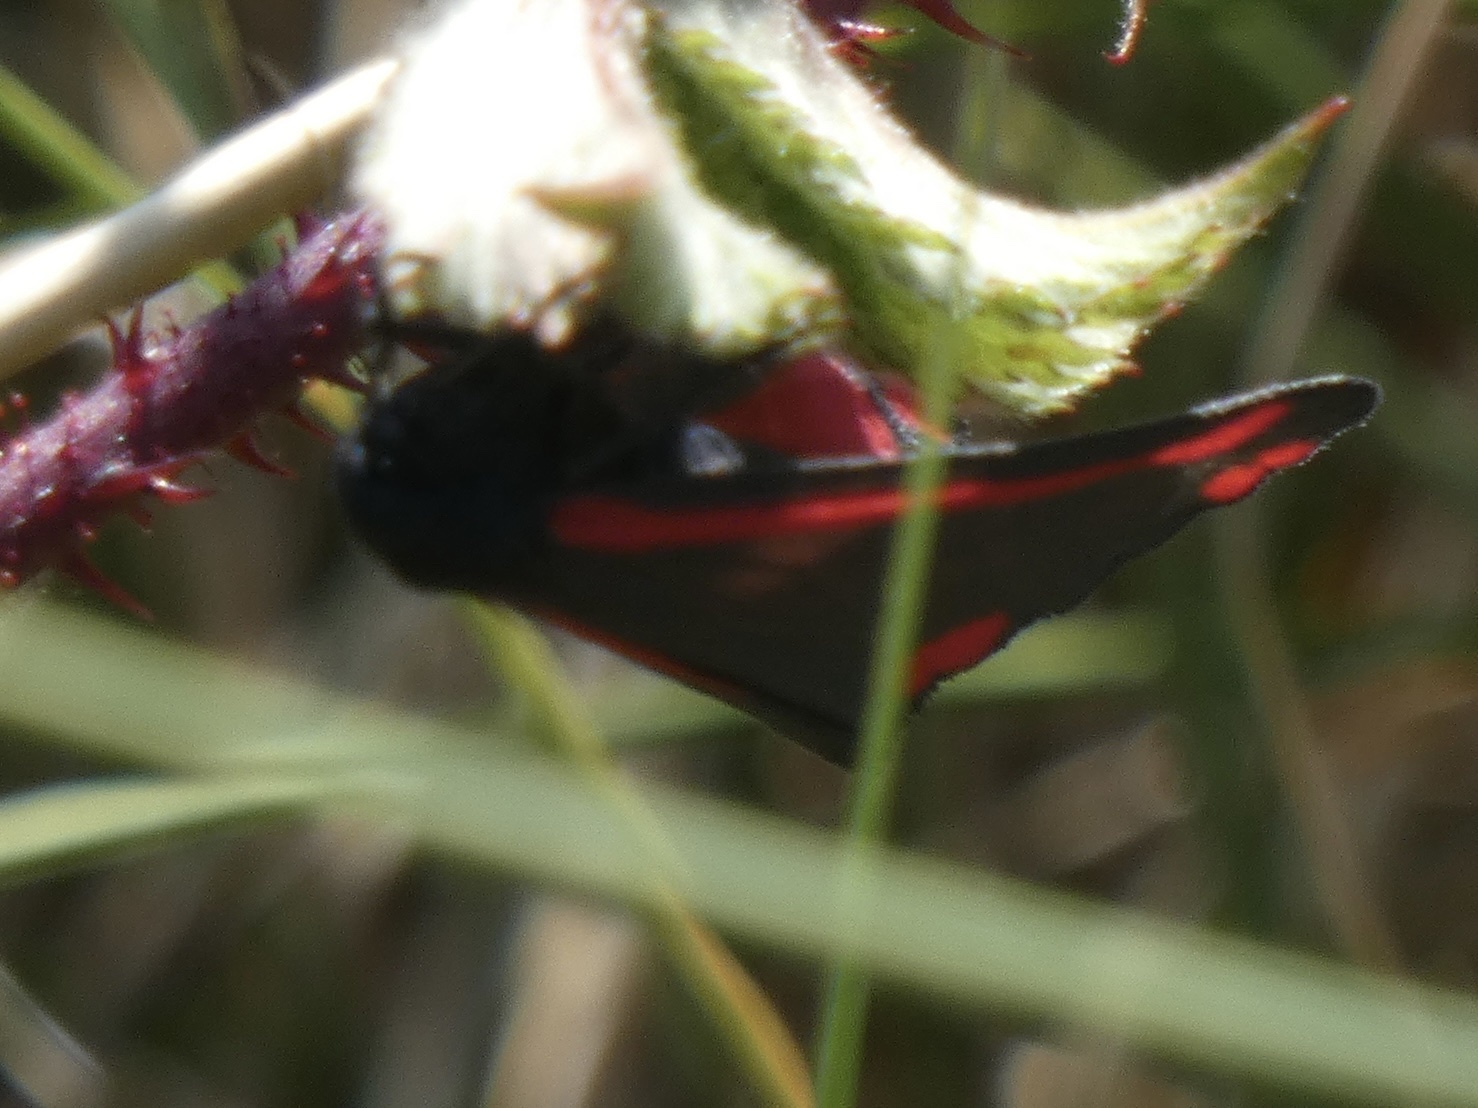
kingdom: Animalia
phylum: Arthropoda
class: Insecta
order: Lepidoptera
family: Erebidae
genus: Tyria
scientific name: Tyria jacobaeae
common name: Cinnabar
